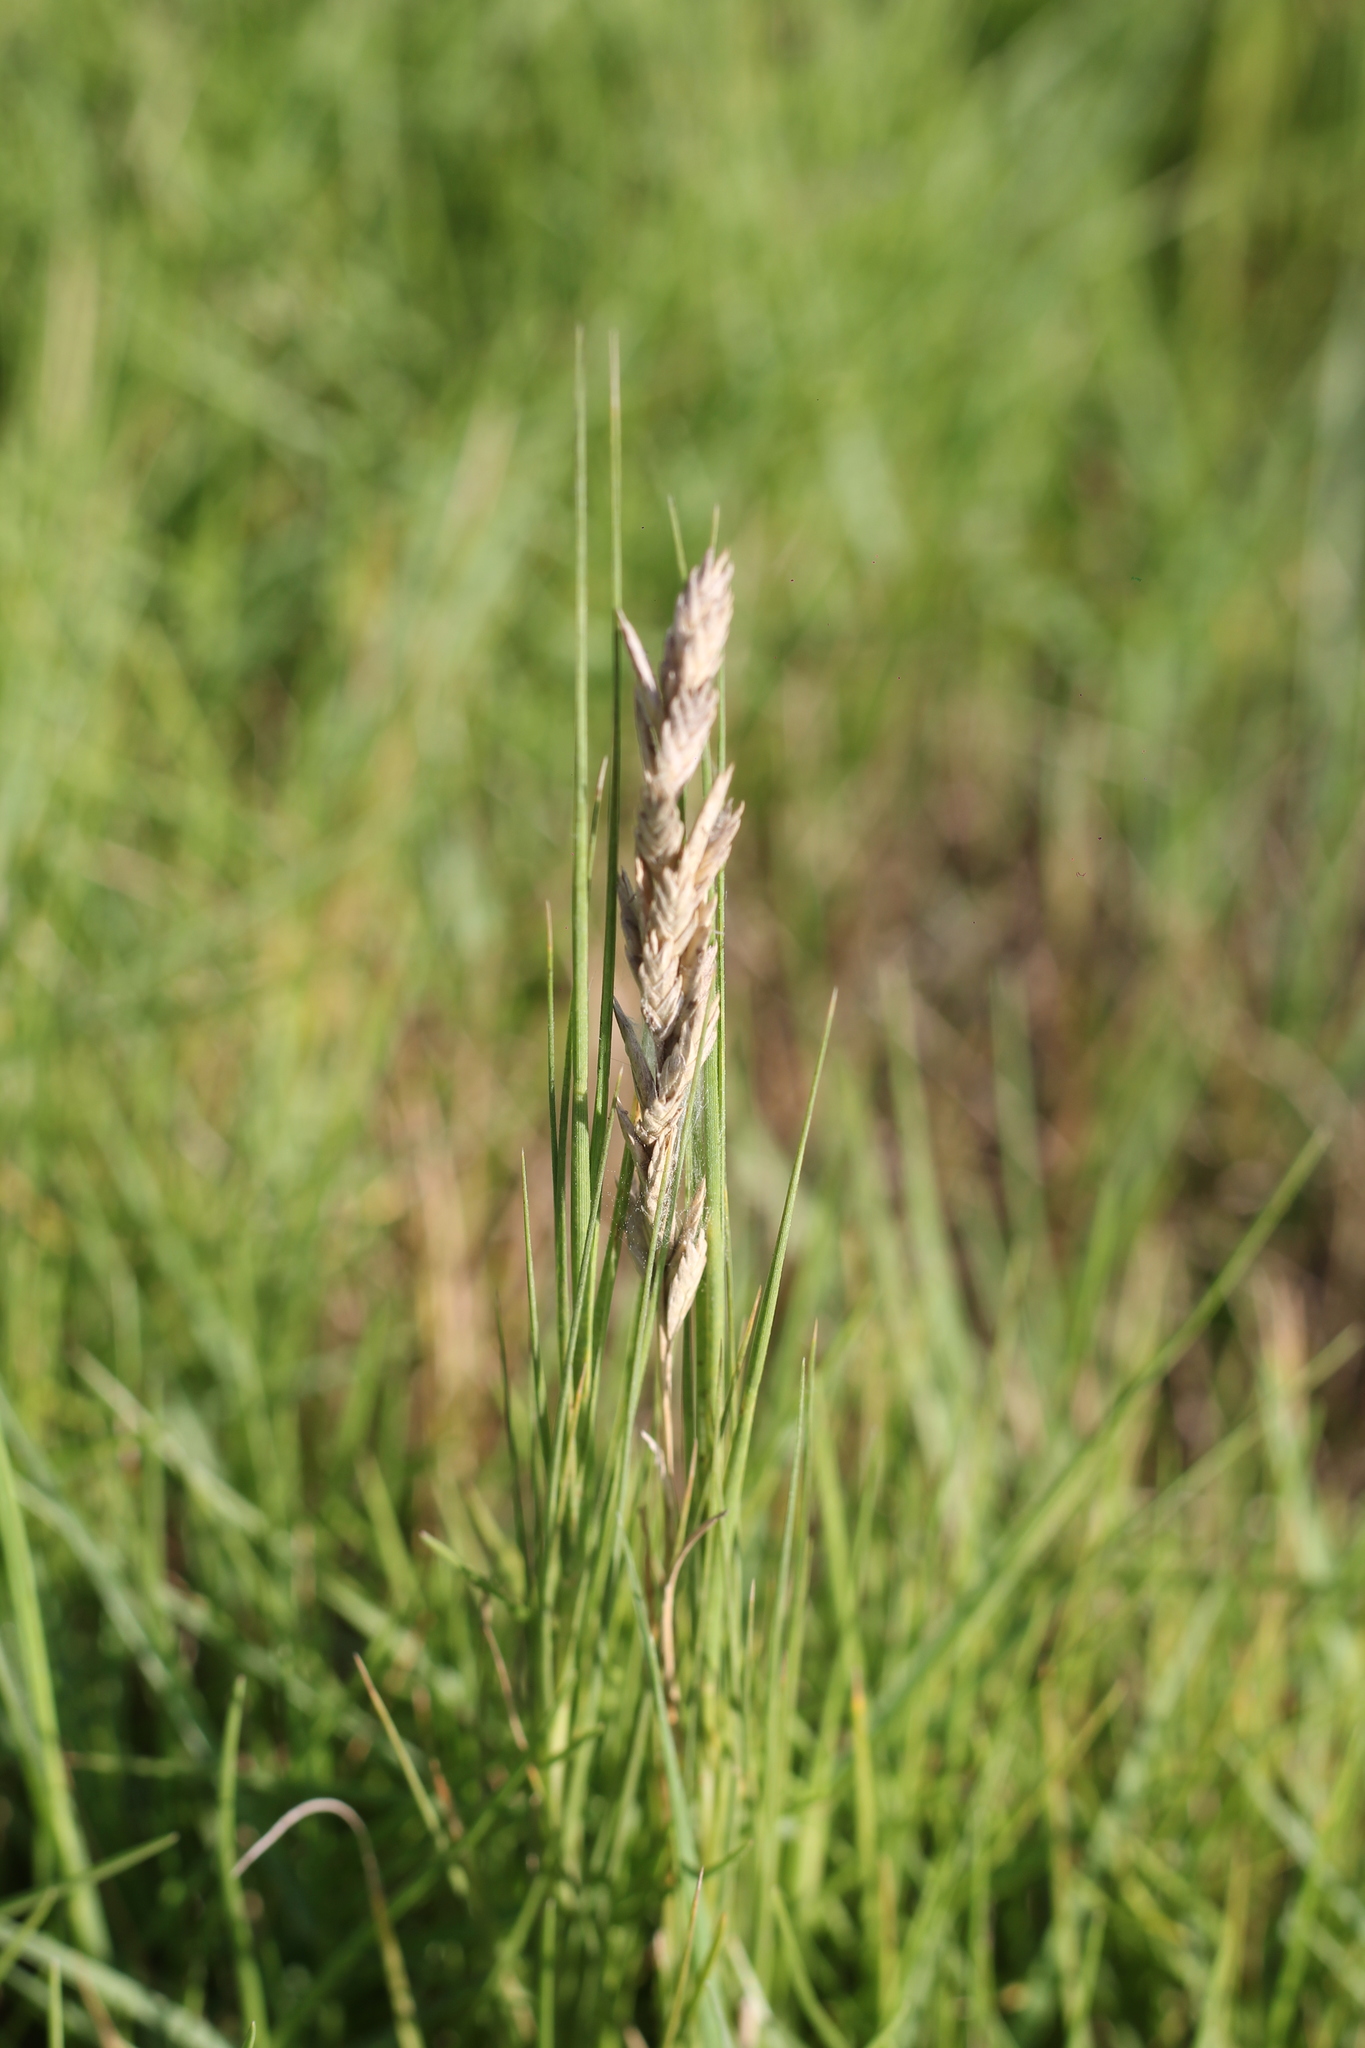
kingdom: Plantae
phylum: Tracheophyta
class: Liliopsida
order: Poales
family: Poaceae
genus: Distichlis
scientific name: Distichlis spicata
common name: Saltgrass
